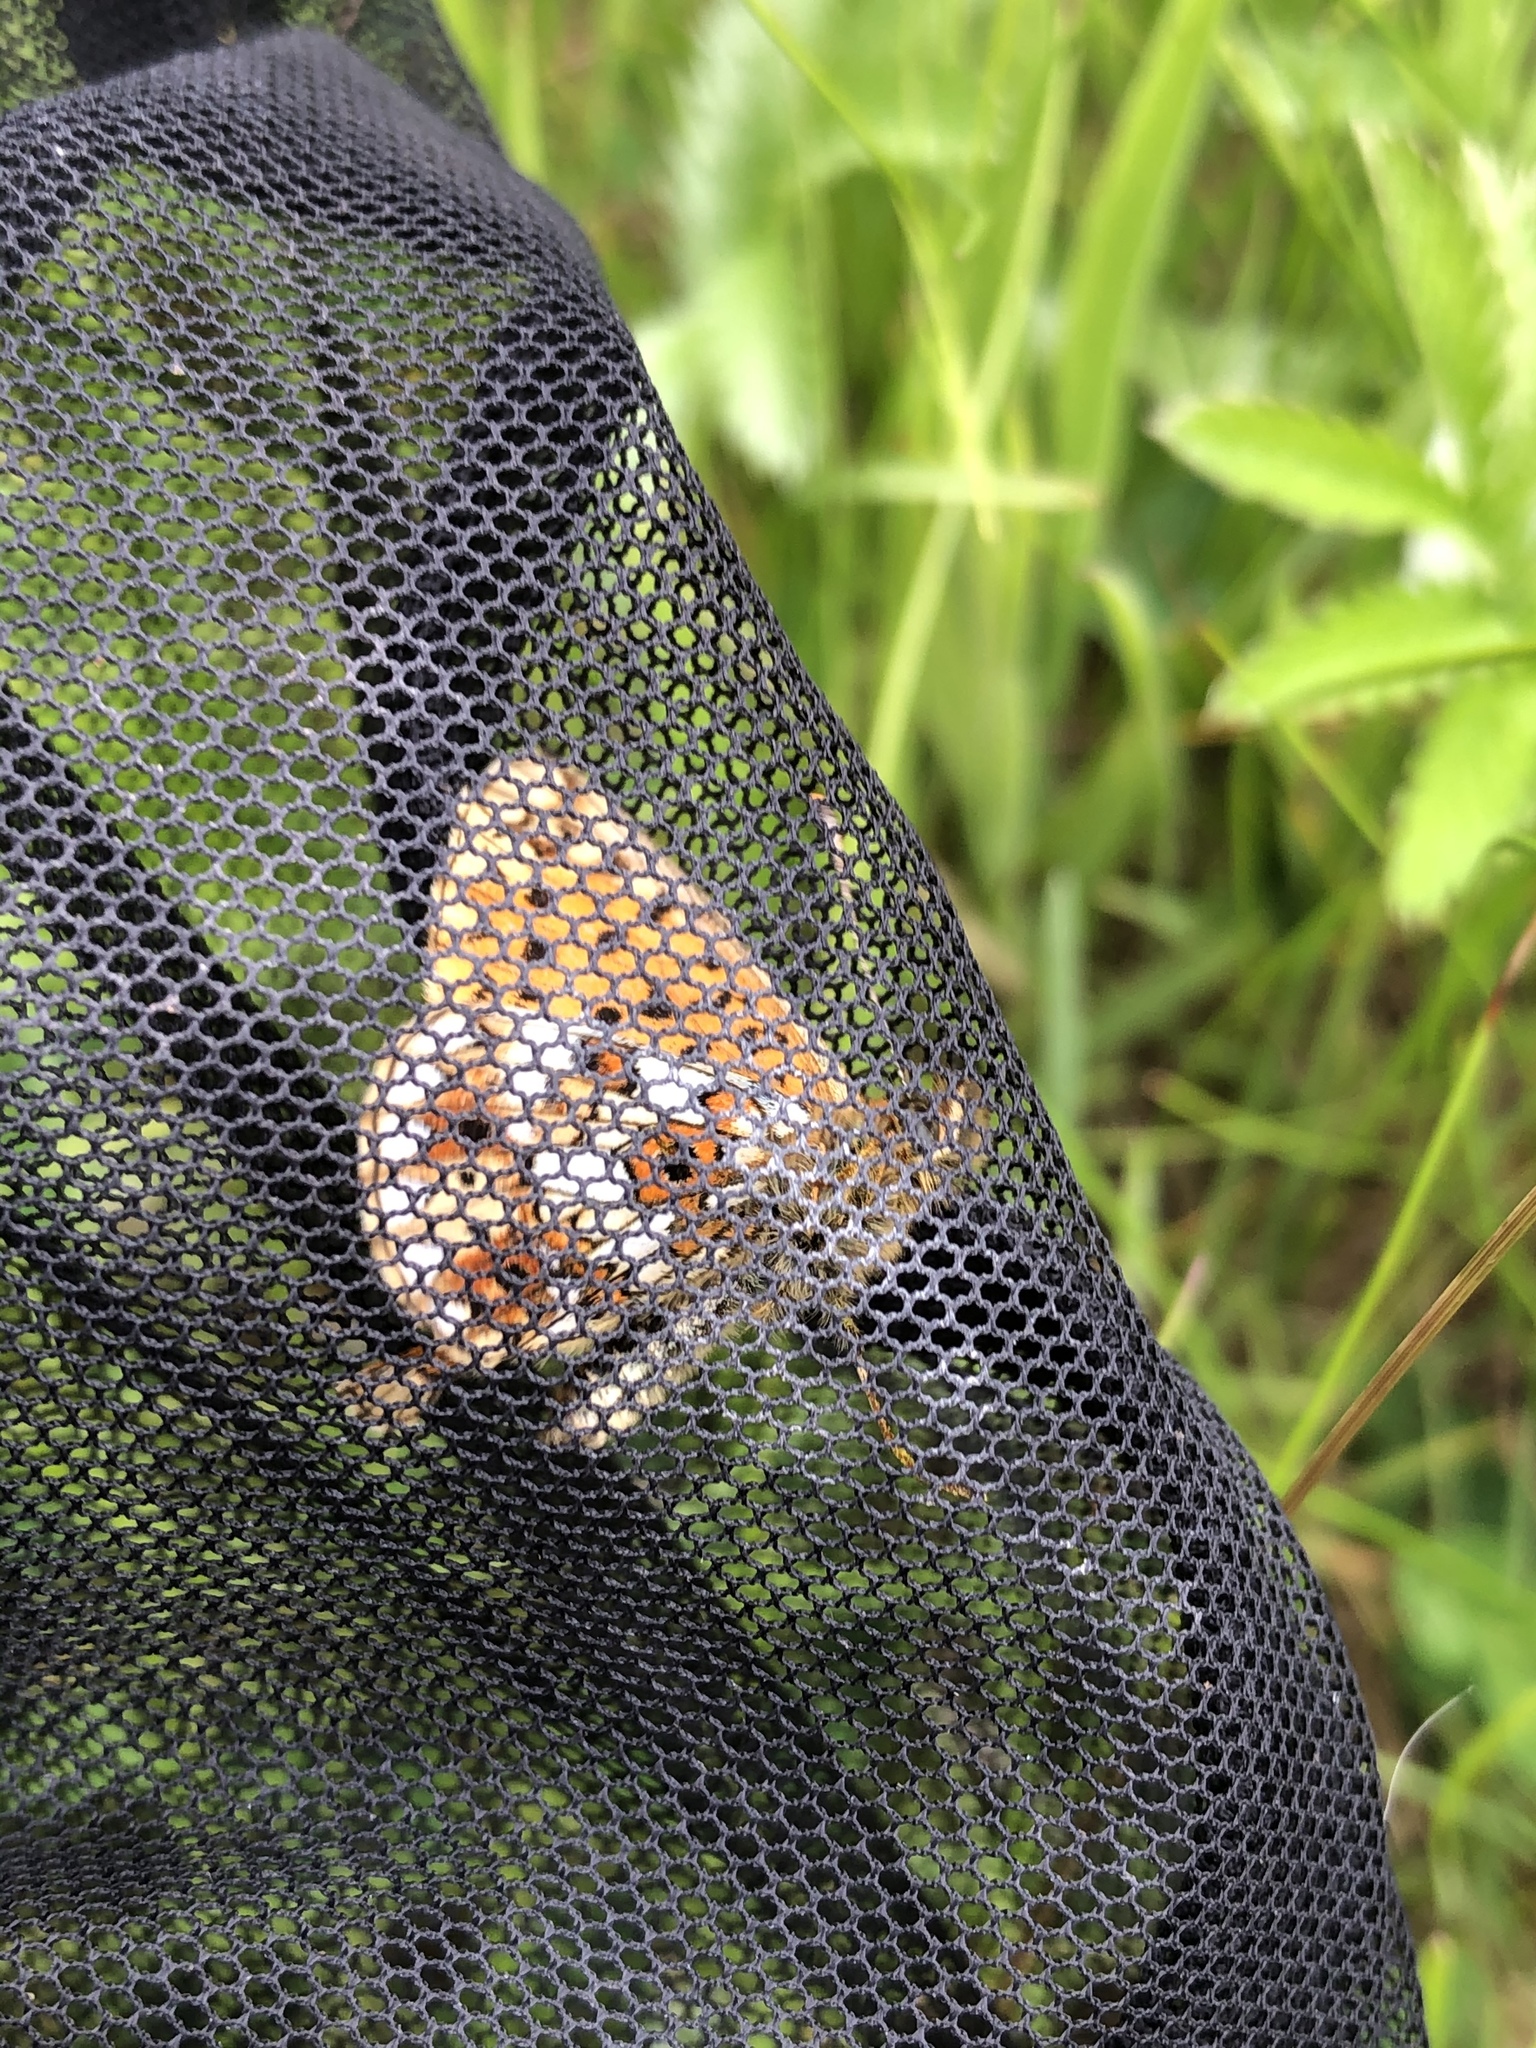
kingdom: Animalia
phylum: Arthropoda
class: Insecta
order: Lepidoptera
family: Nymphalidae
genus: Boloria
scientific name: Boloria selene
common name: Small pearl-bordered fritillary
